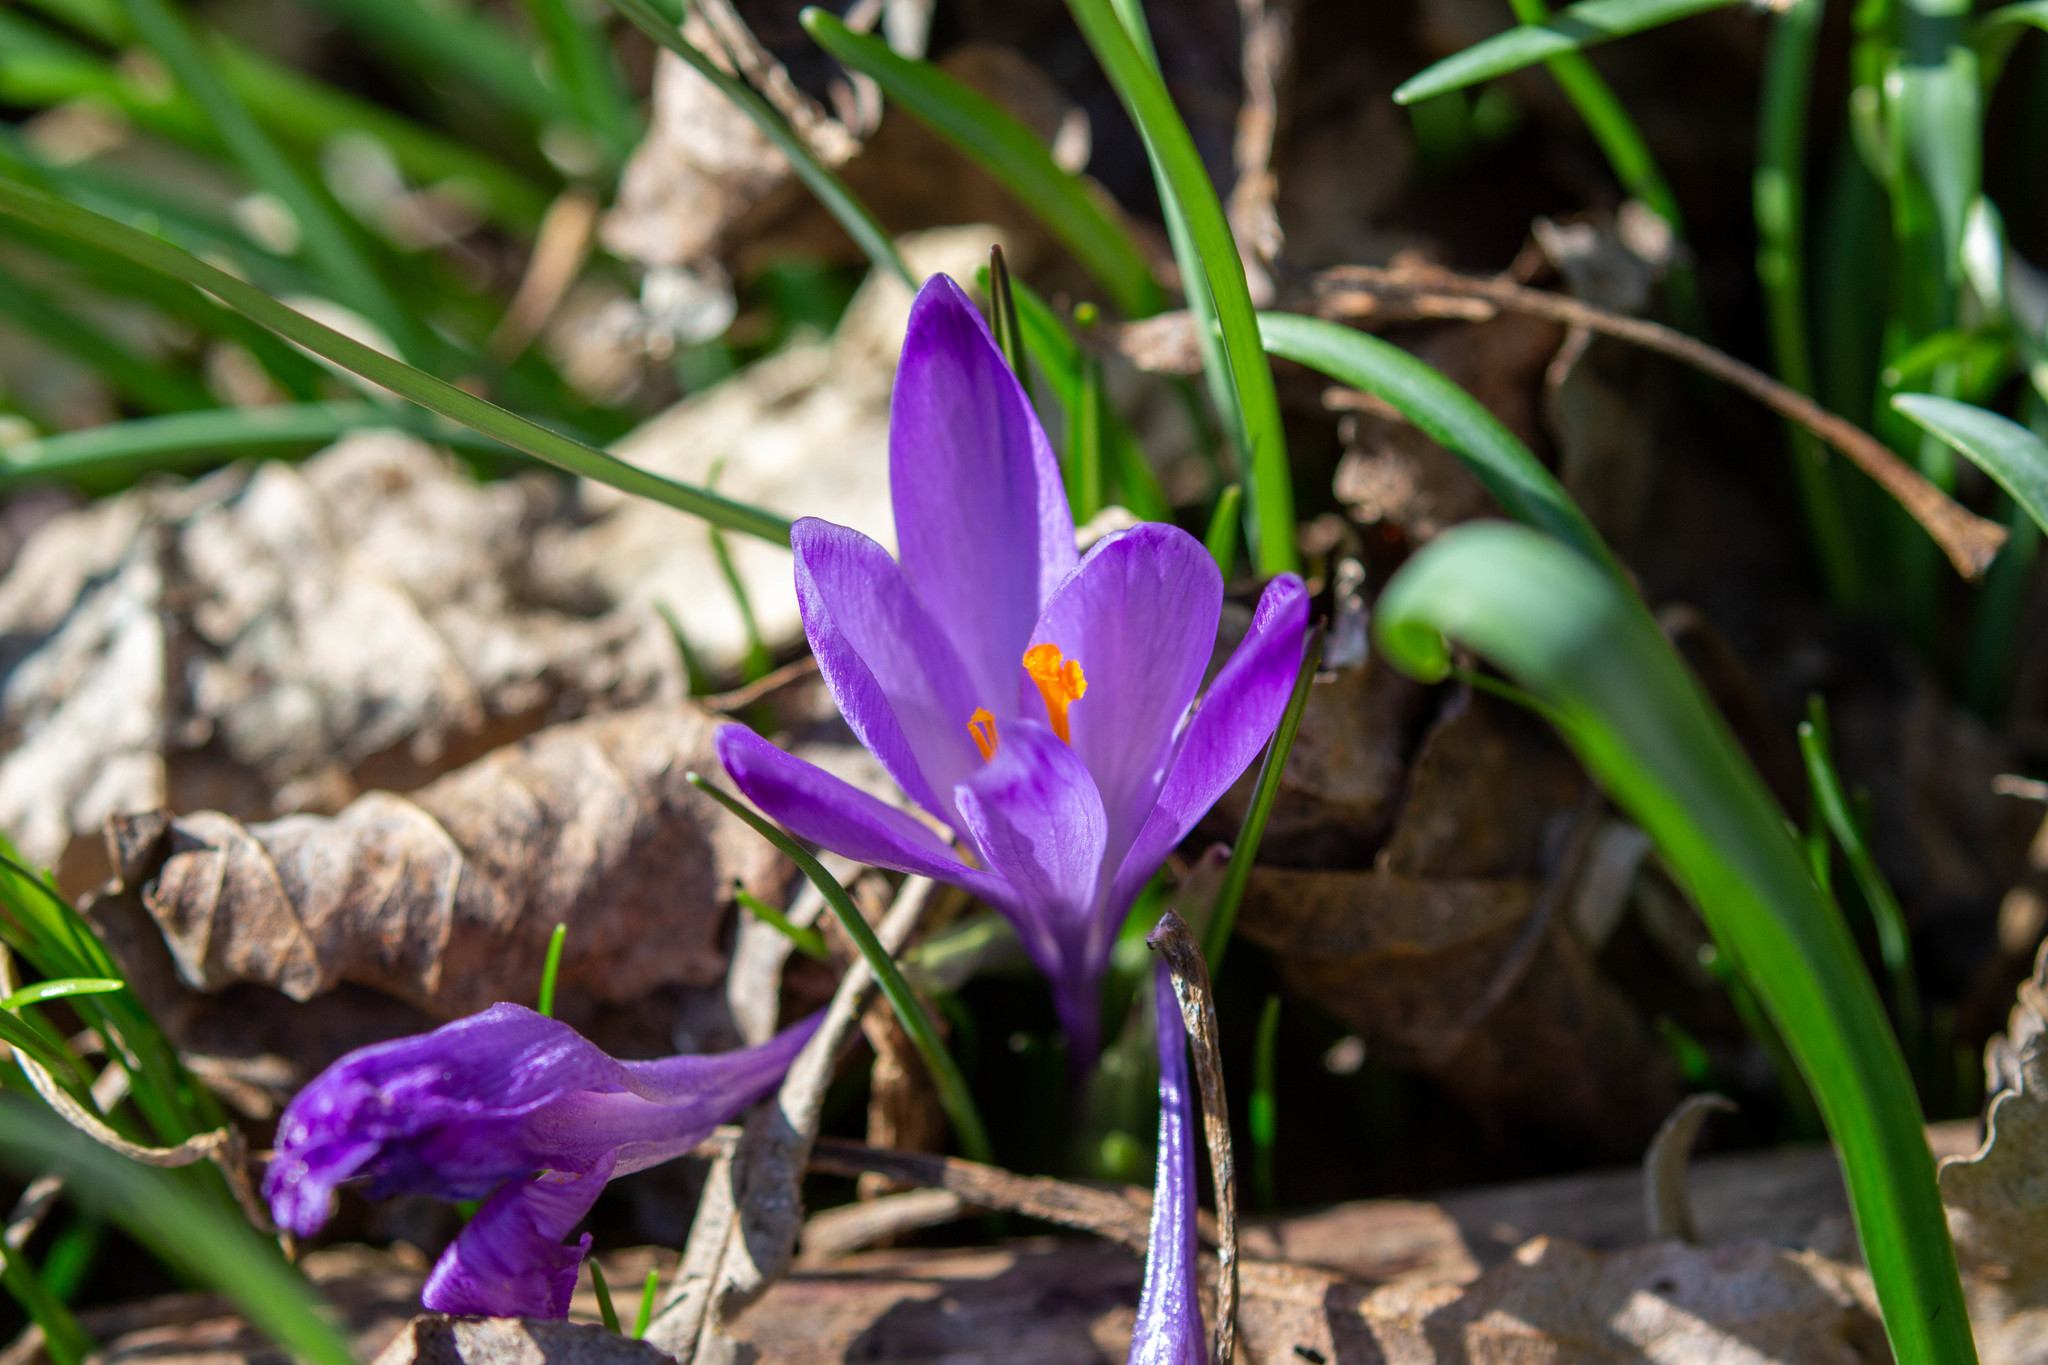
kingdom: Plantae
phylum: Tracheophyta
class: Liliopsida
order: Asparagales
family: Iridaceae
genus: Crocus
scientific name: Crocus heuffelianus
